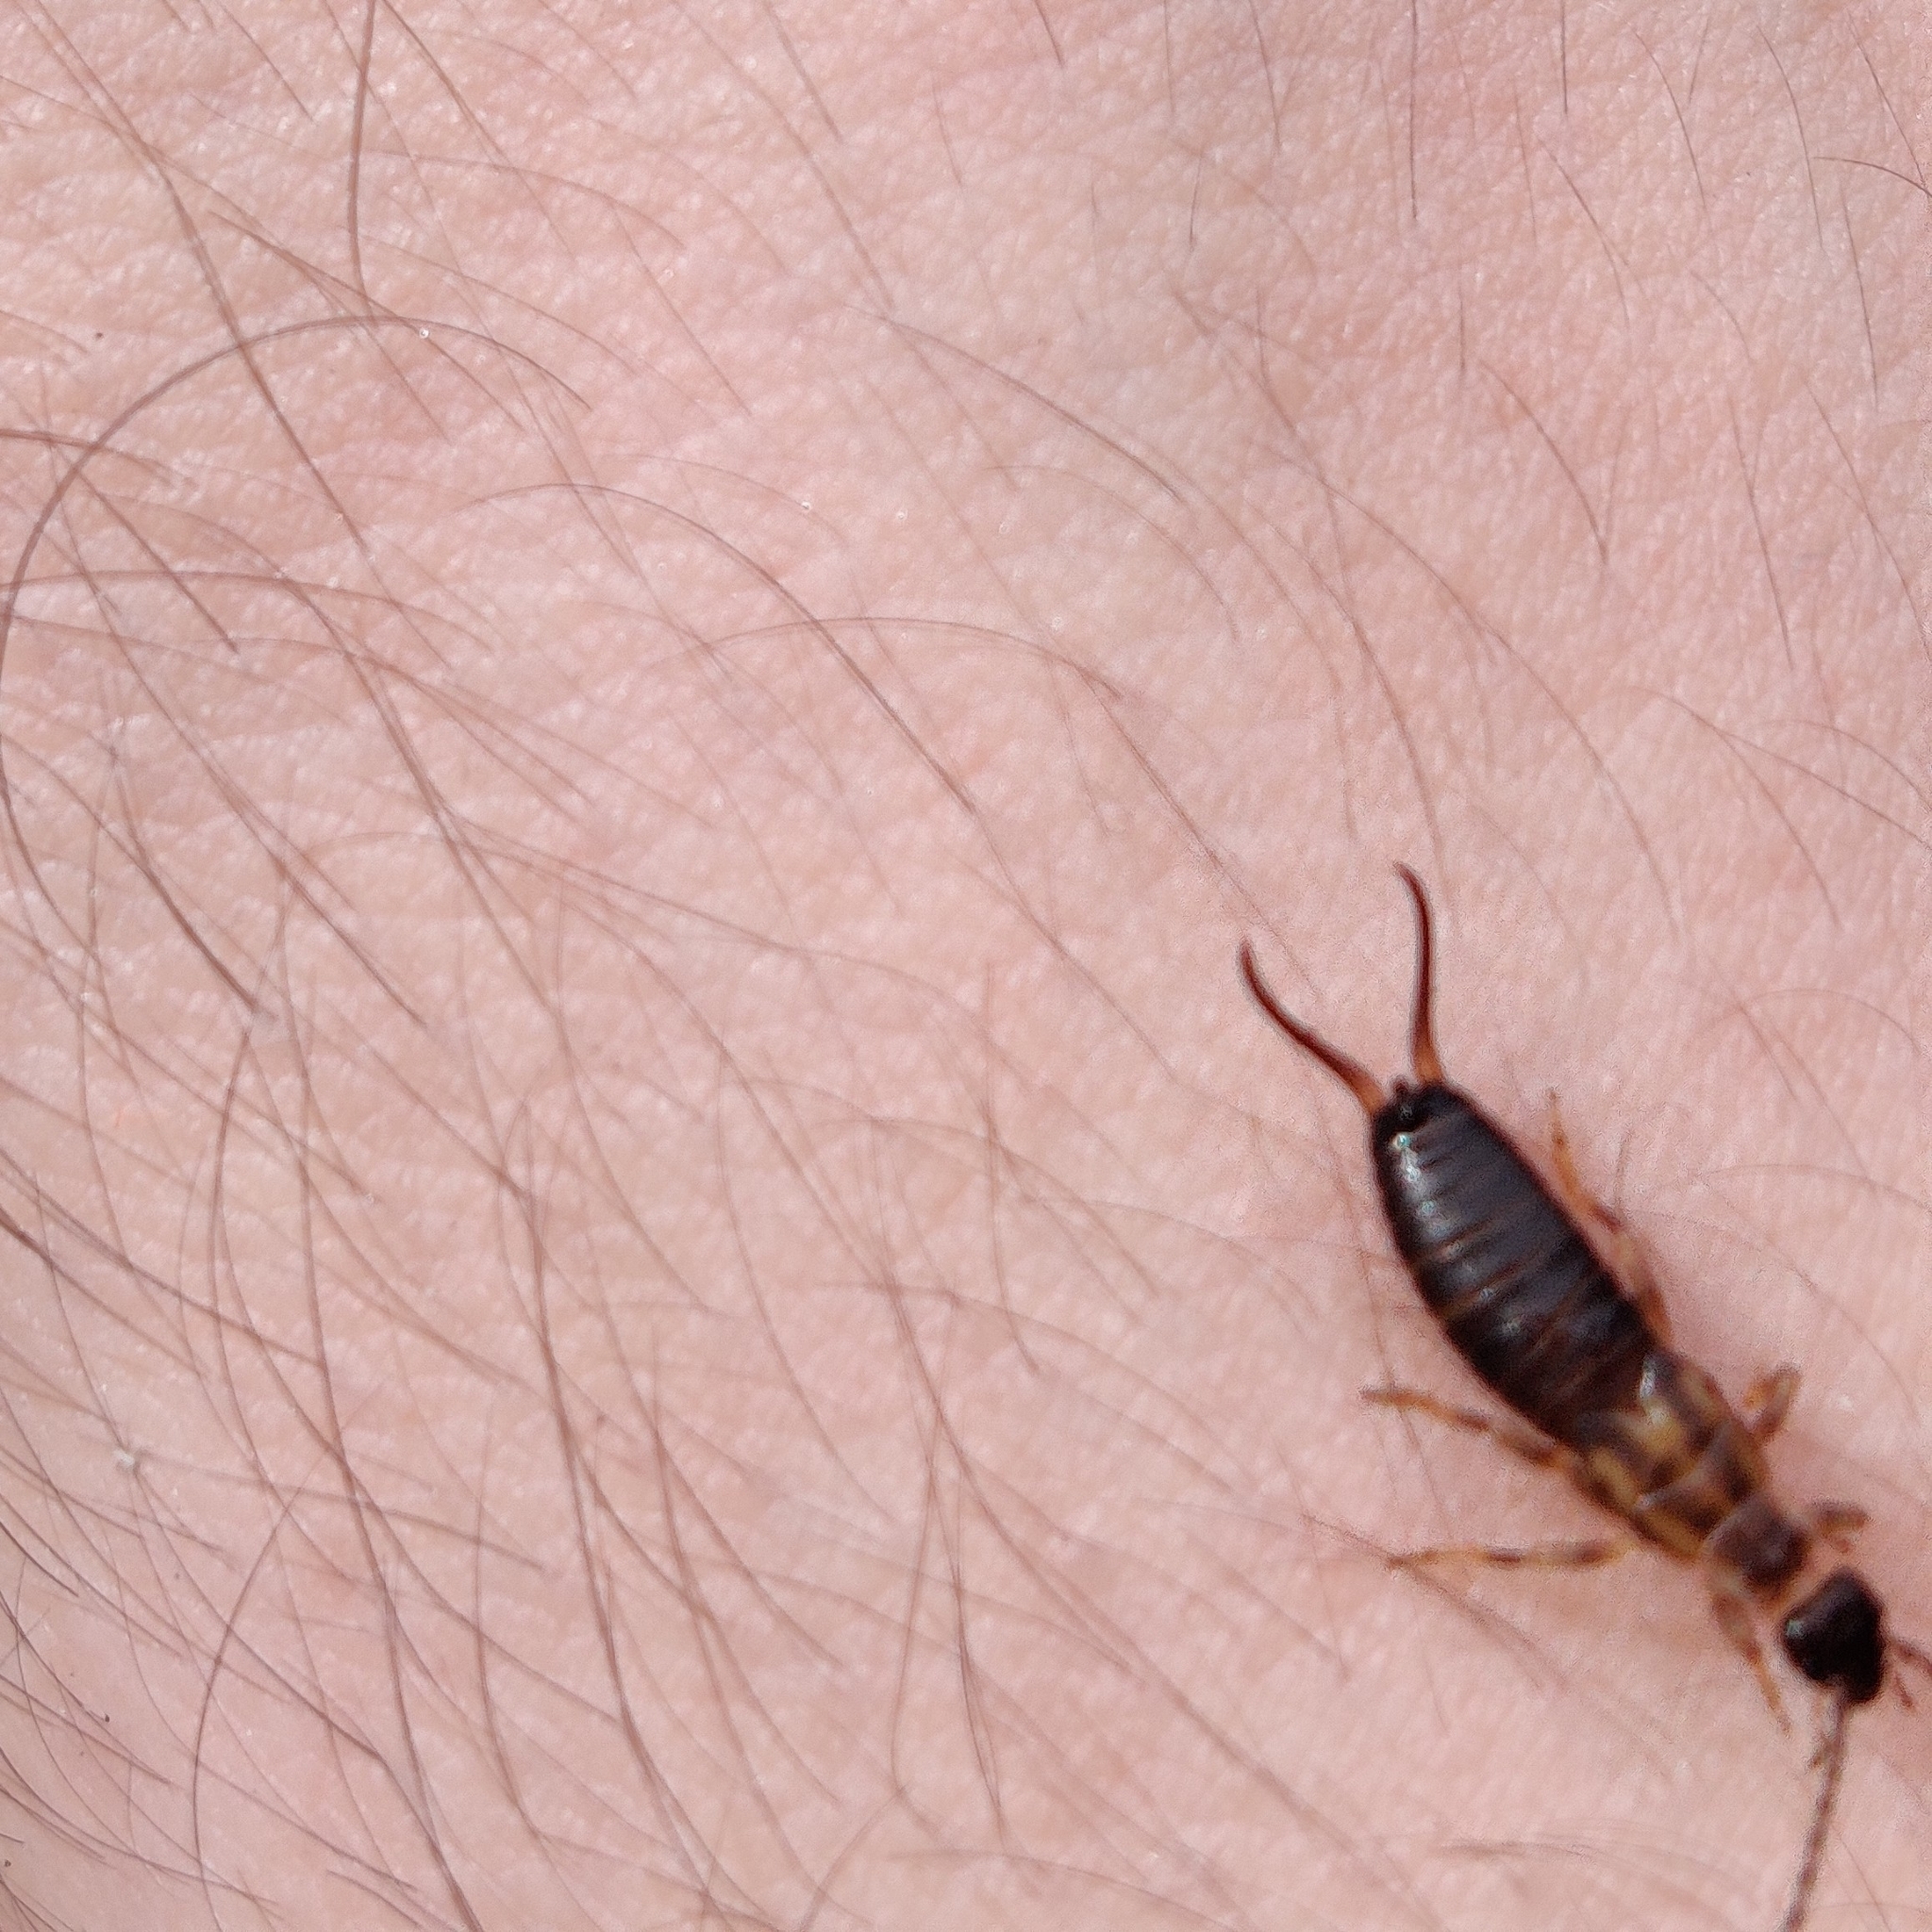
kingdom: Animalia
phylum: Arthropoda
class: Insecta
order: Dermaptera
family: Forficulidae
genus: Forficula
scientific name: Forficula
